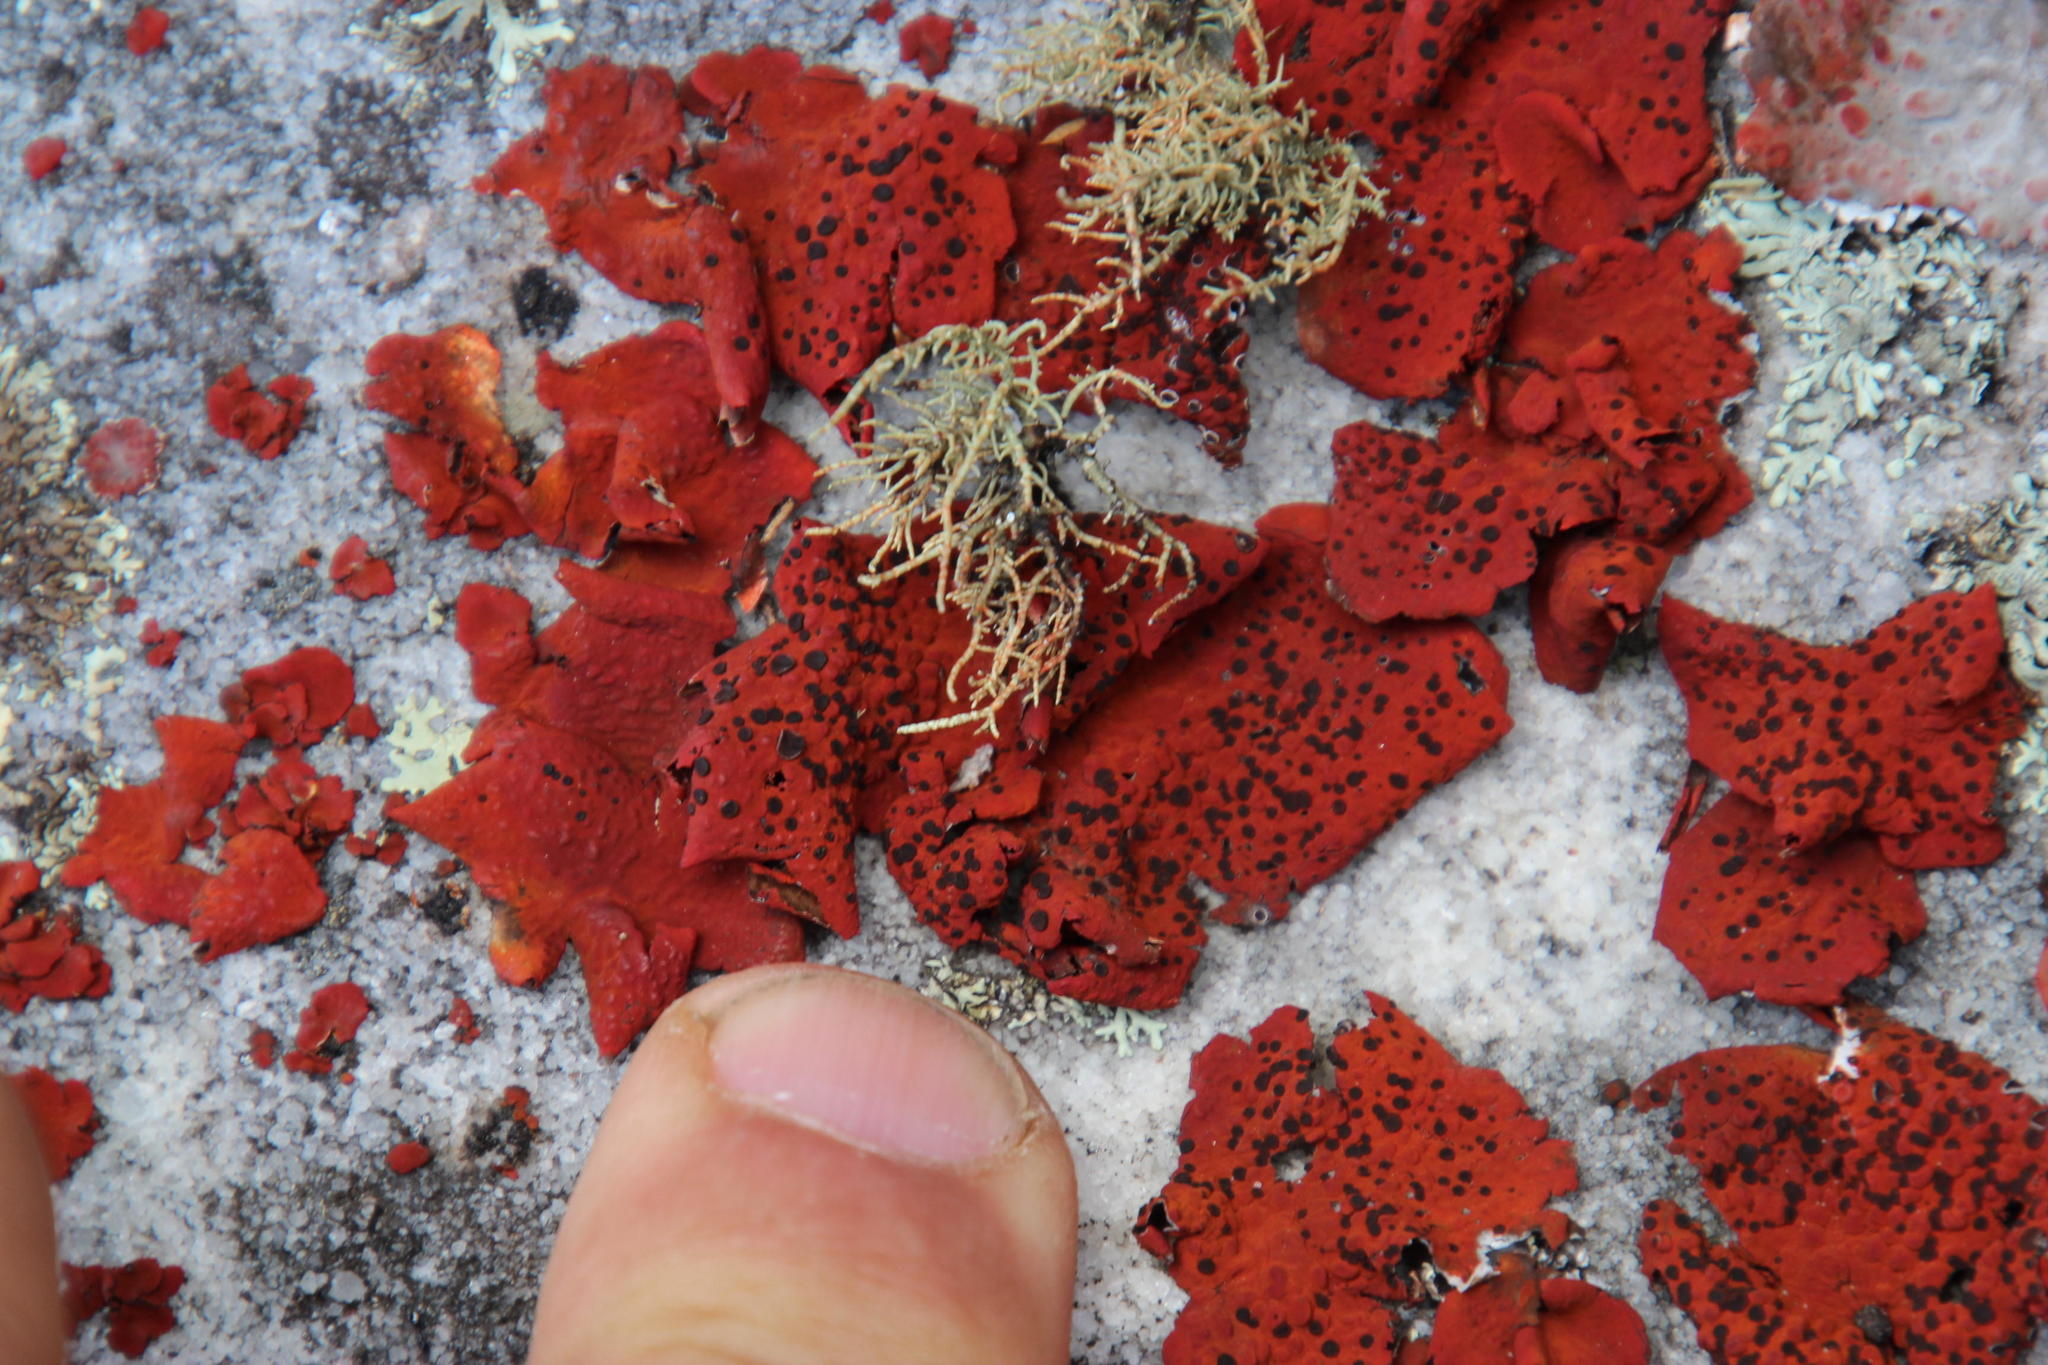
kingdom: Fungi
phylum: Ascomycota
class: Lecanoromycetes
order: Umbilicariales
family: Umbilicariaceae
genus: Lasallia
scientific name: Lasallia rubiginosa
